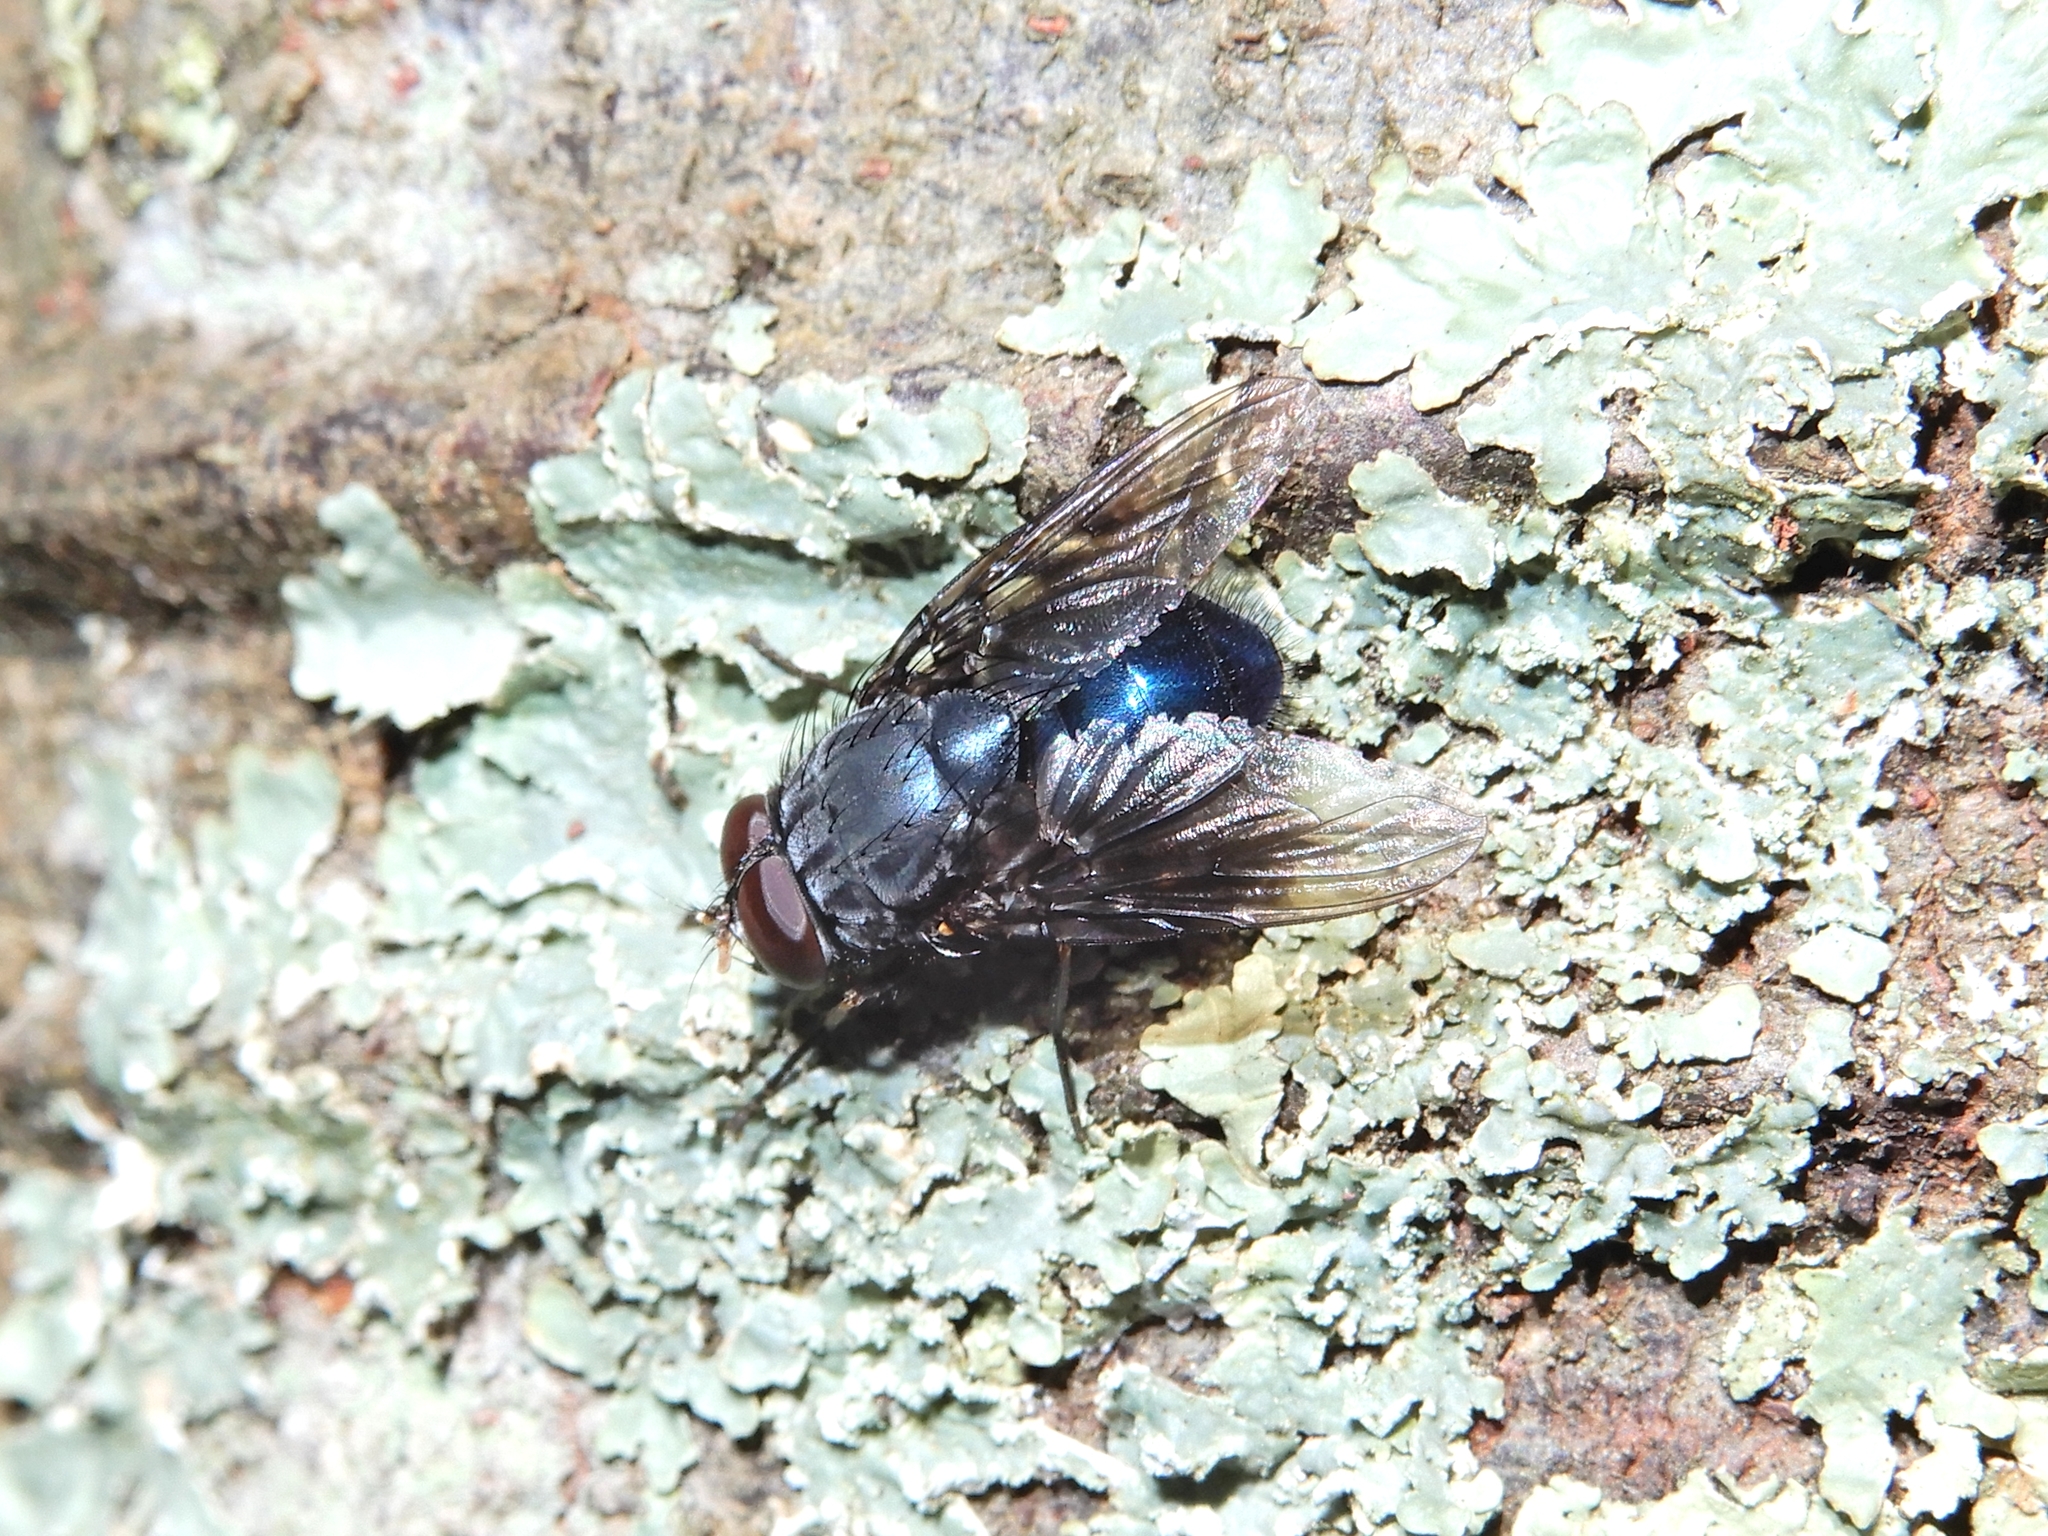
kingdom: Animalia
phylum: Arthropoda
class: Insecta
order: Diptera
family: Calliphoridae
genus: Calliphora
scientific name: Calliphora vicina
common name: Common blow flie
